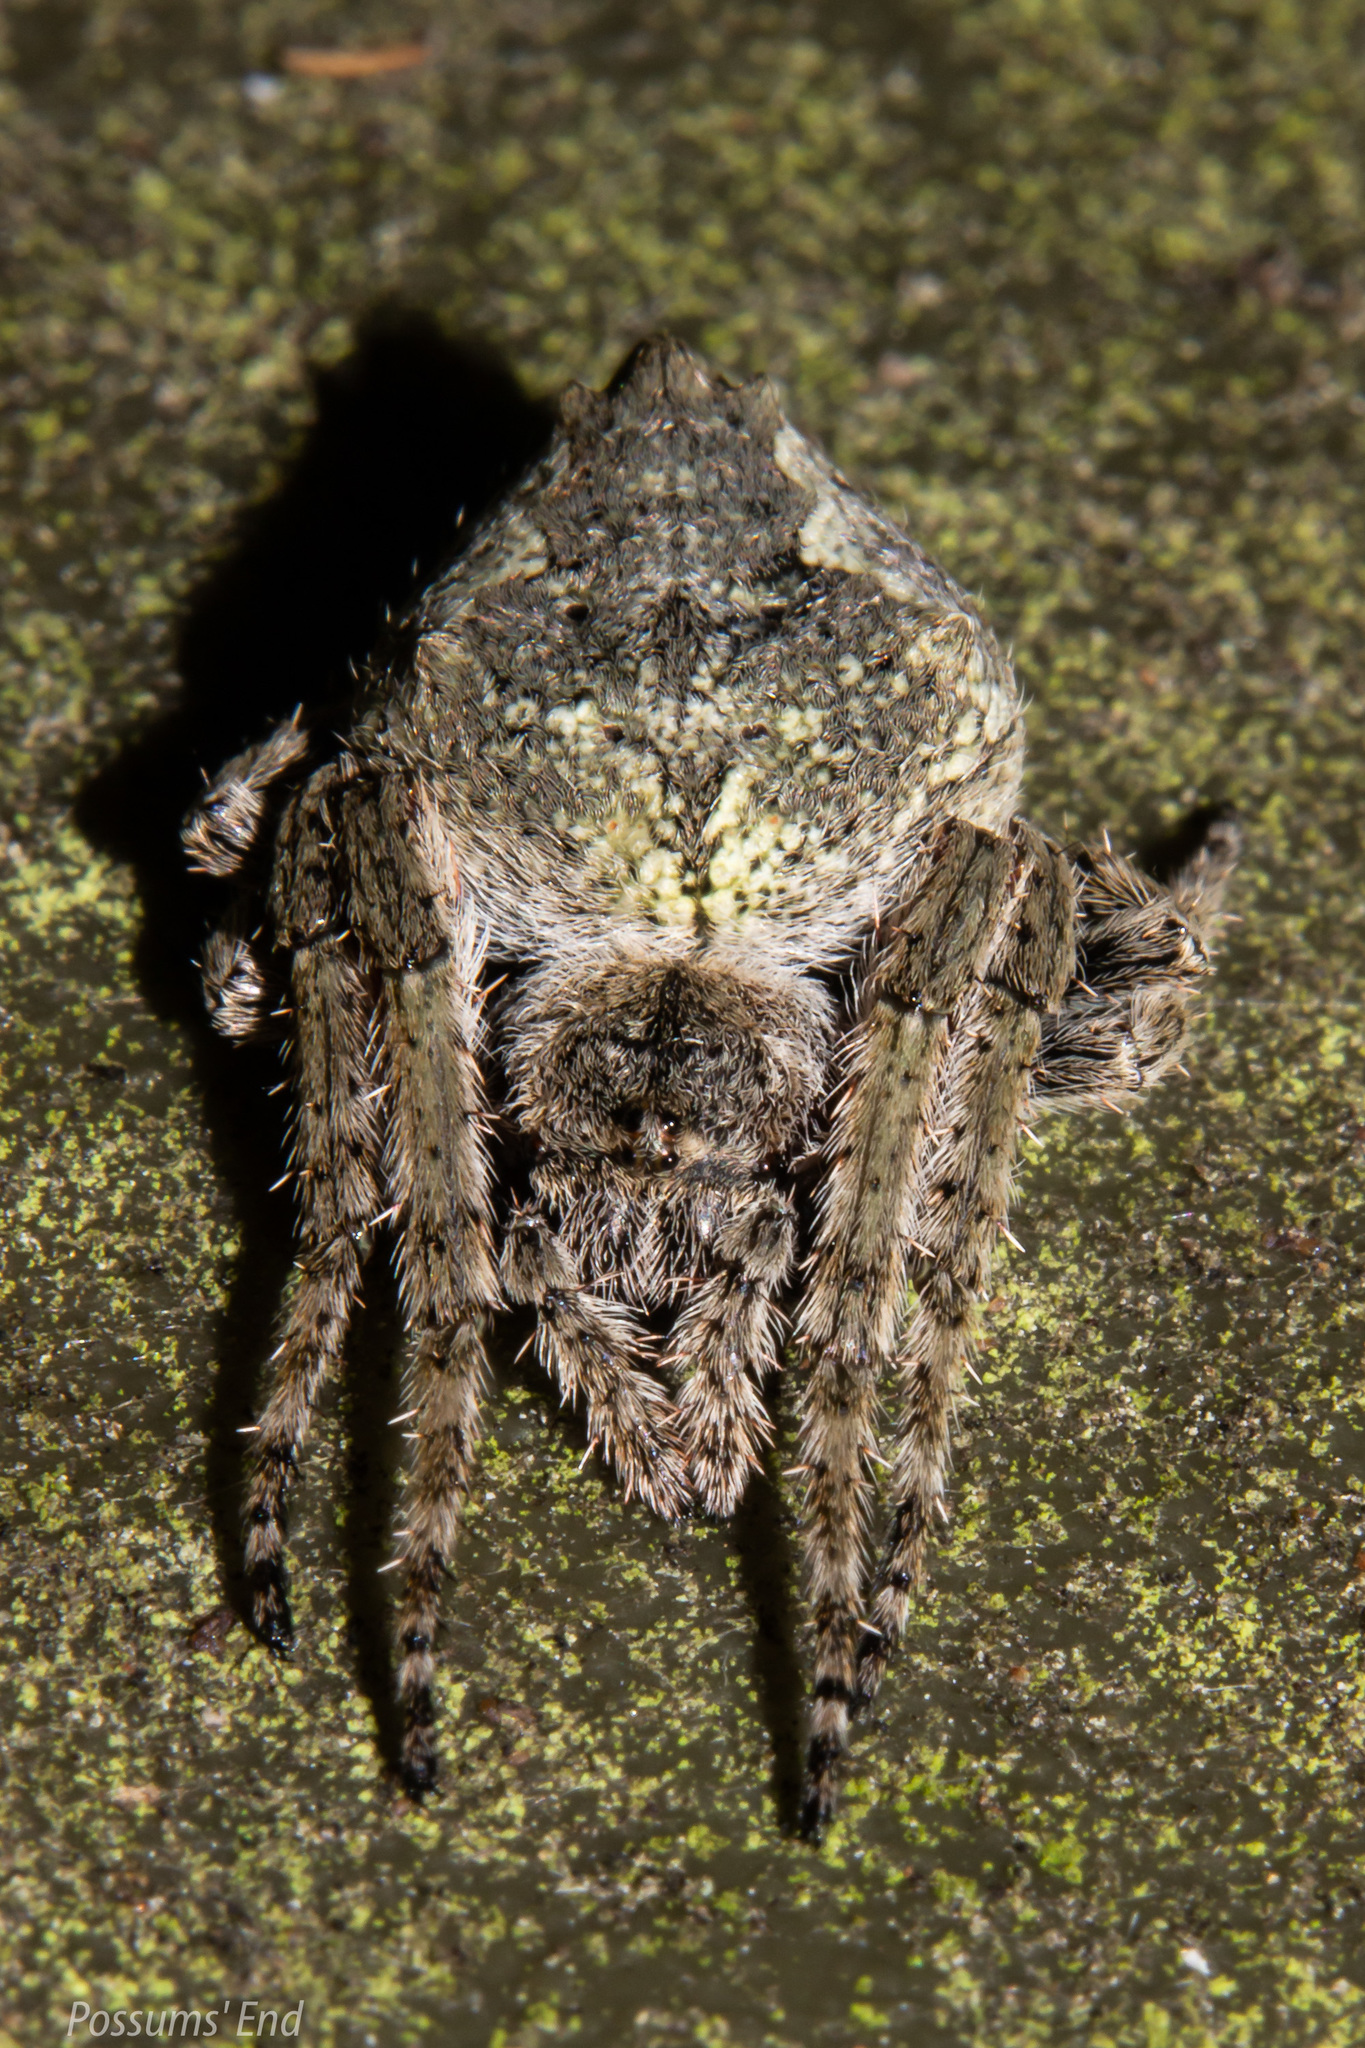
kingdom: Animalia
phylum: Arthropoda
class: Arachnida
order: Araneae
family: Araneidae
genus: Eriophora
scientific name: Eriophora pustulosa
